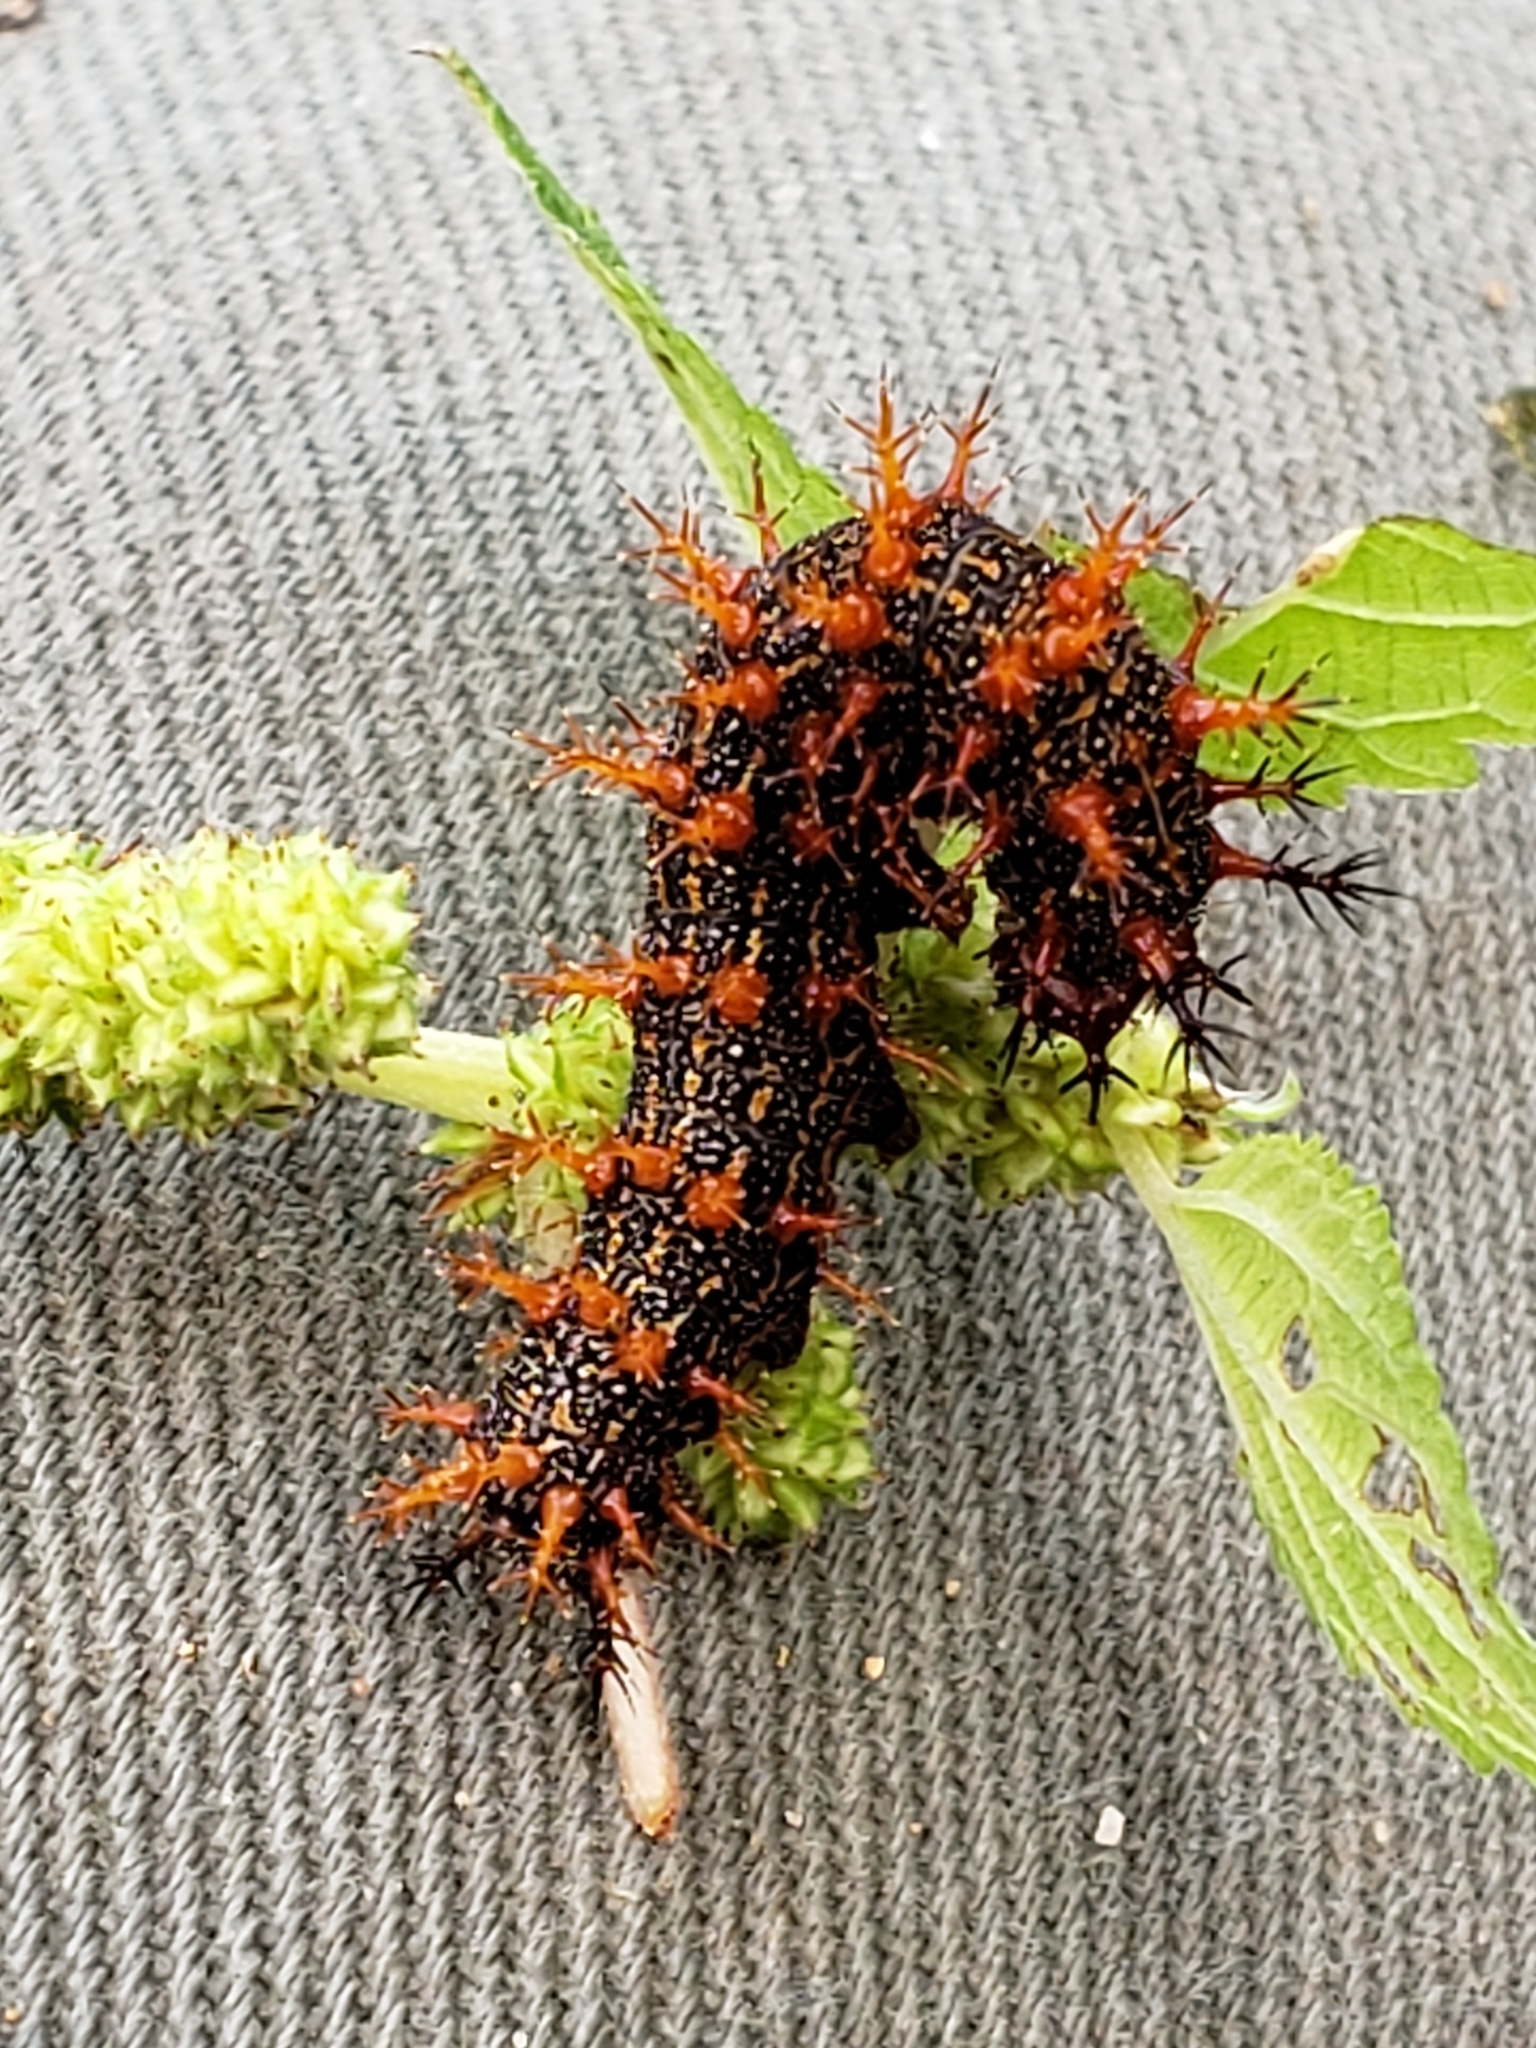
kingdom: Animalia
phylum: Arthropoda
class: Insecta
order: Lepidoptera
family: Nymphalidae
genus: Polygonia
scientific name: Polygonia interrogationis
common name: Question mark
